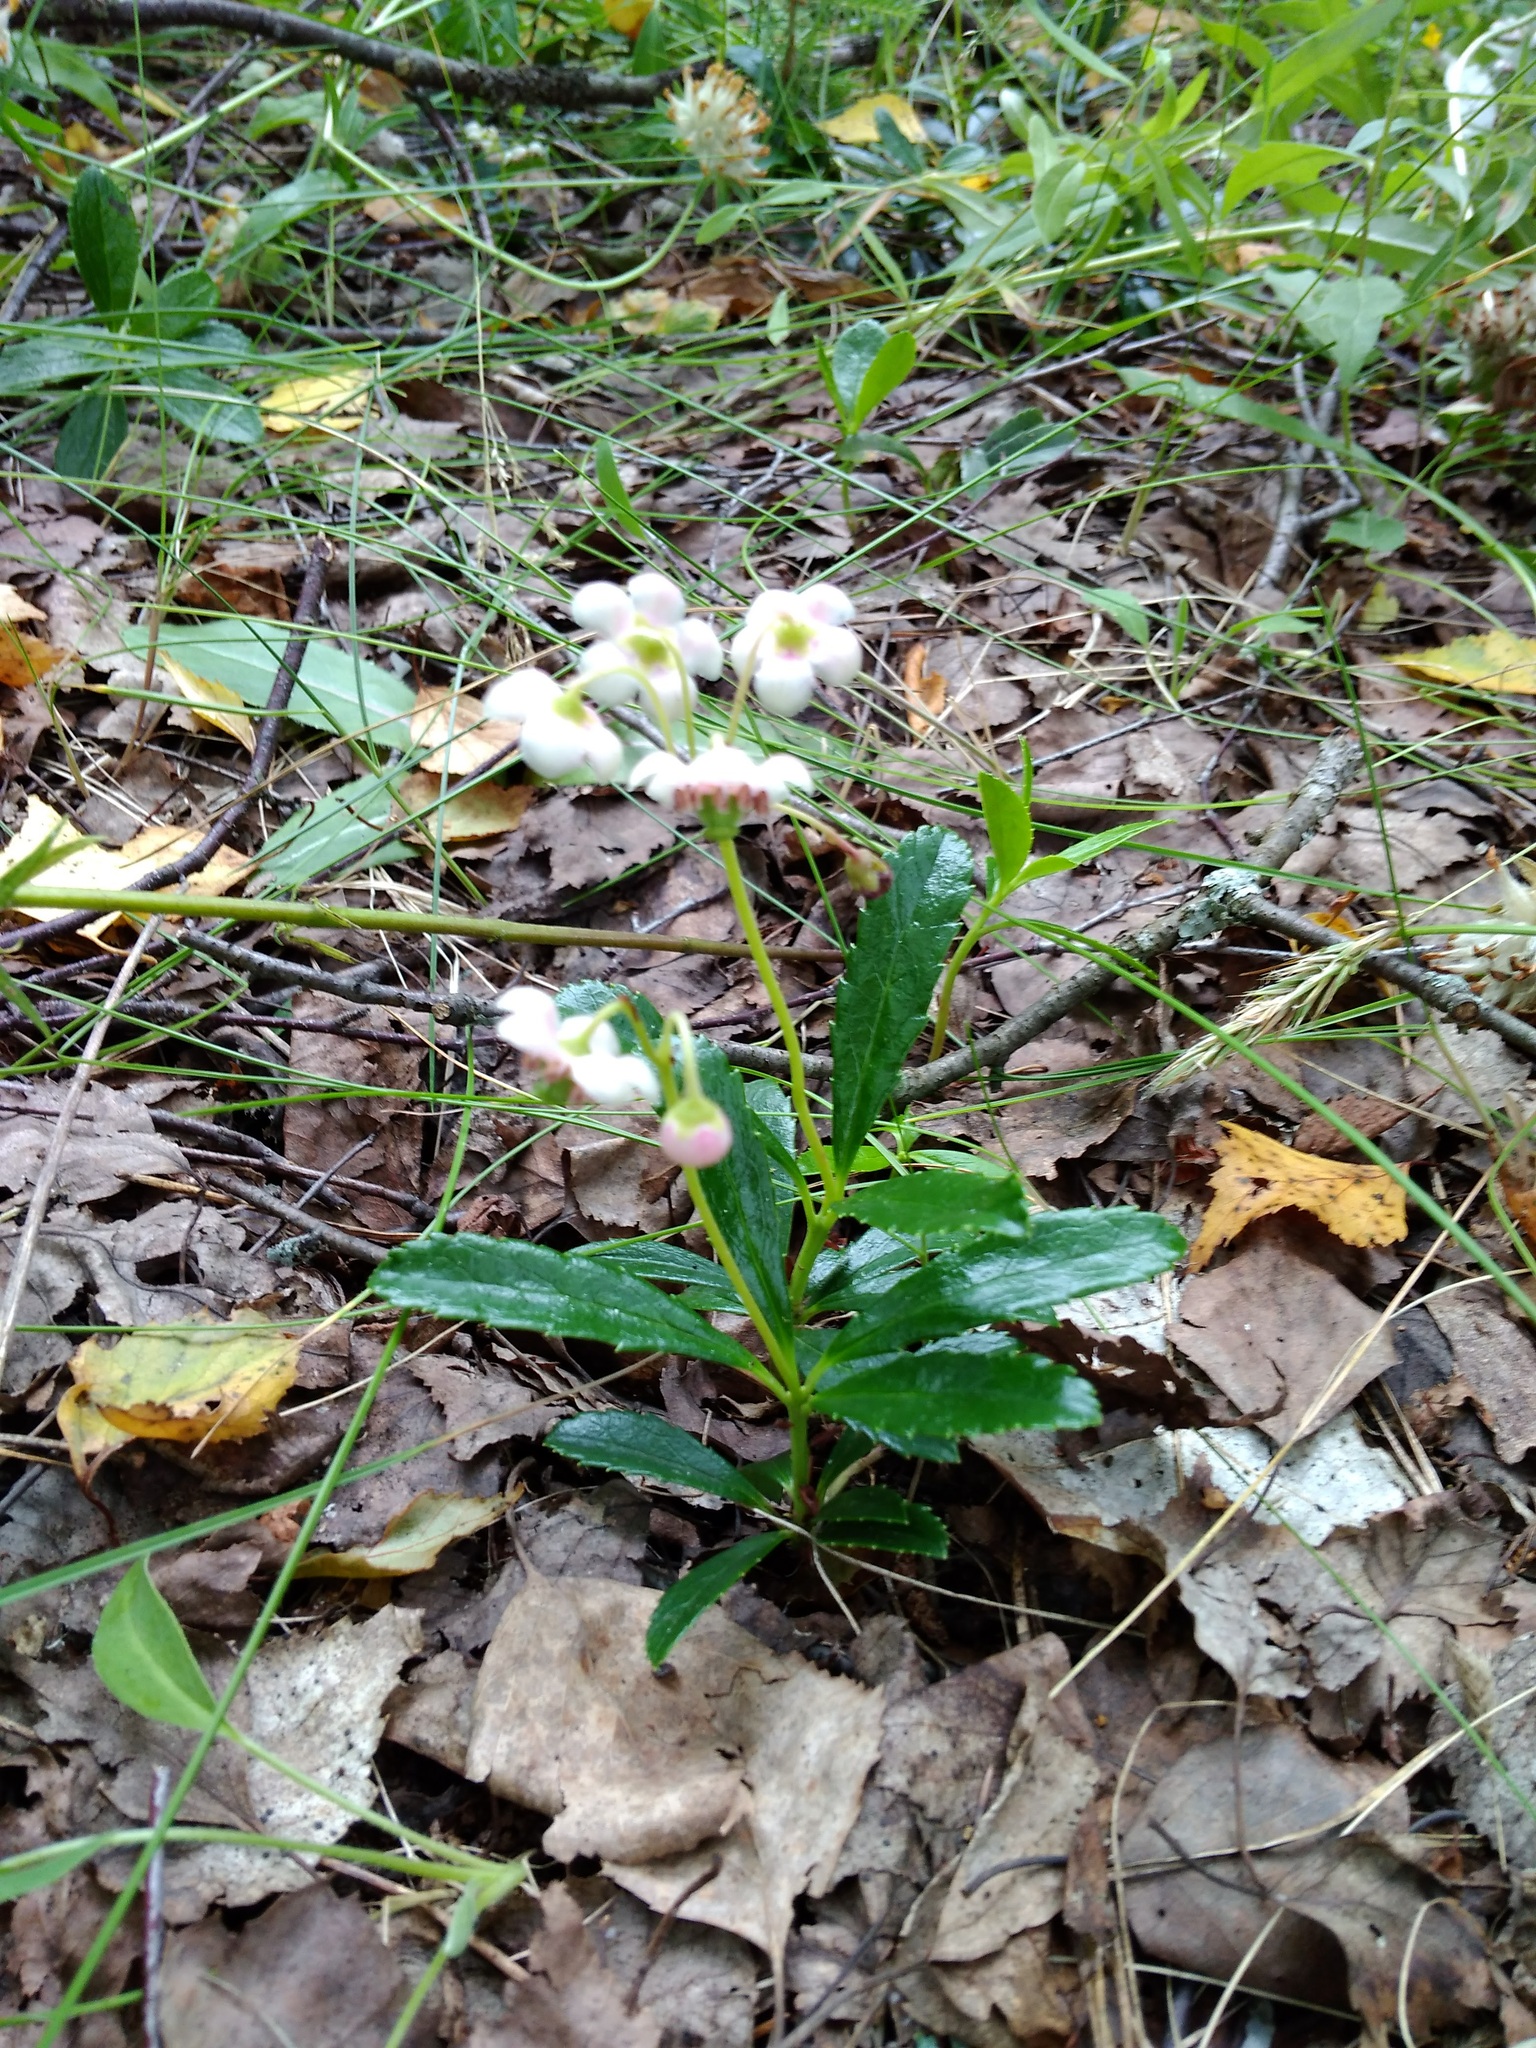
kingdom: Plantae
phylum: Tracheophyta
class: Magnoliopsida
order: Ericales
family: Ericaceae
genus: Chimaphila
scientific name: Chimaphila umbellata
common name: Pipsissewa
